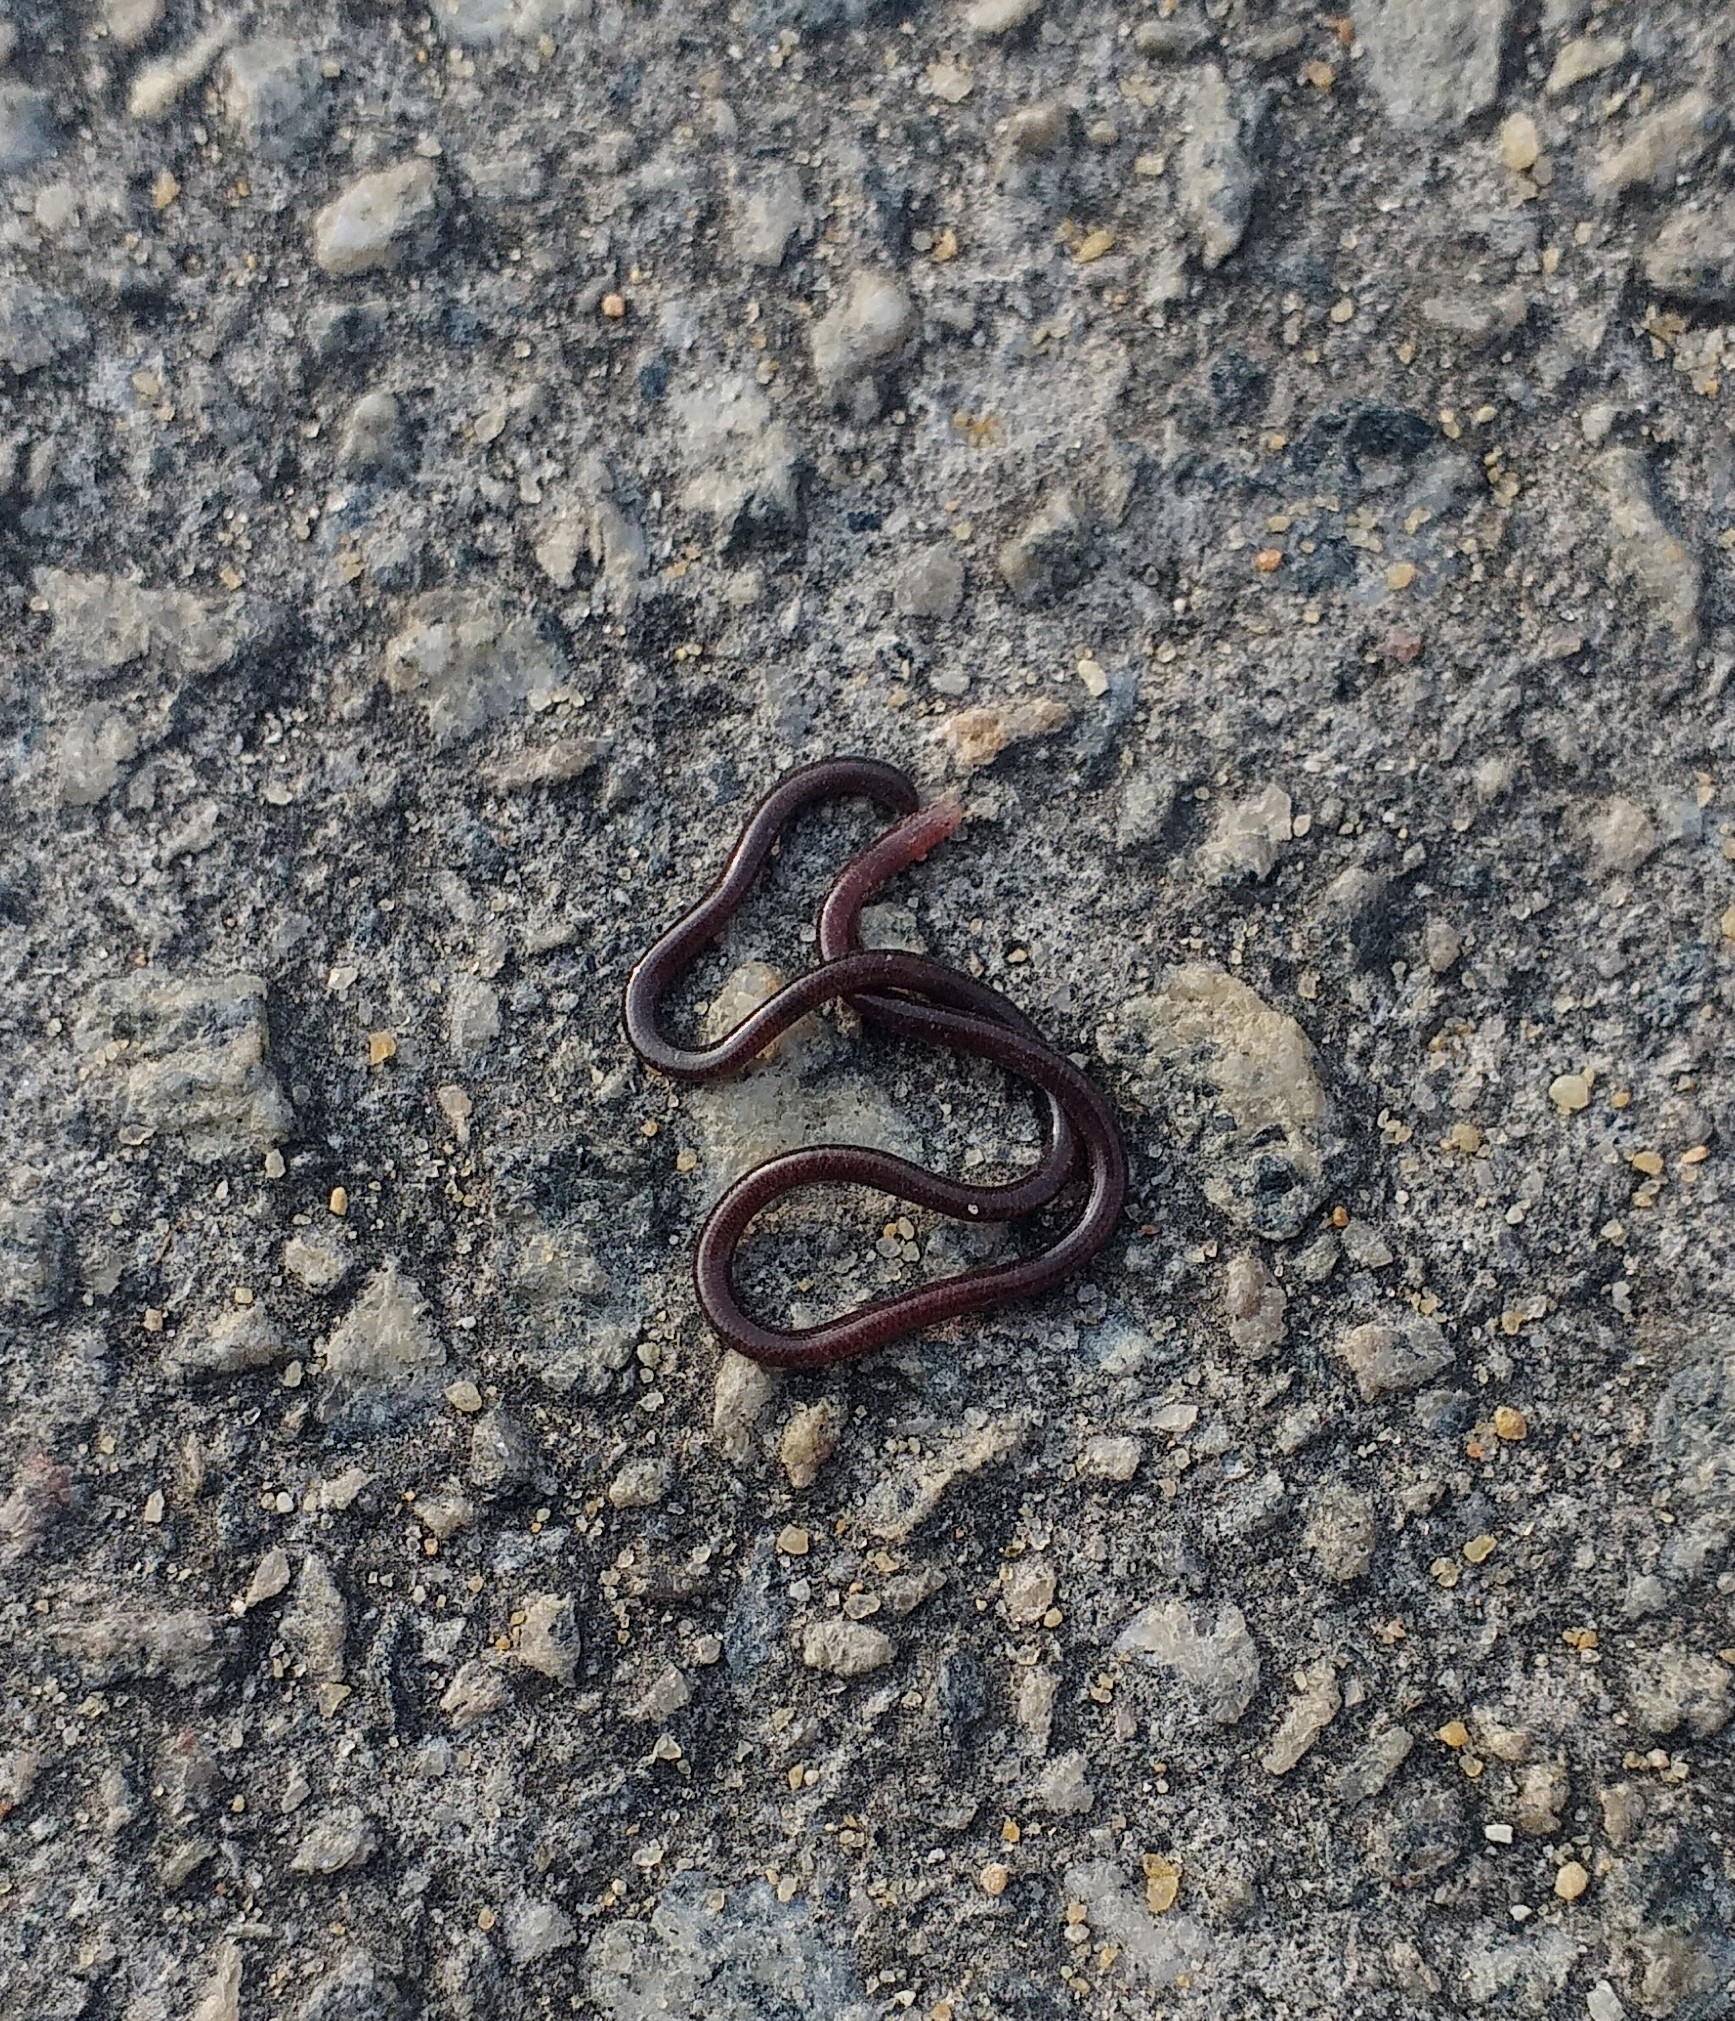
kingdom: Animalia
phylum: Chordata
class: Squamata
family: Typhlopidae
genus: Indotyphlops
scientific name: Indotyphlops braminus
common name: Brahminy blindsnake
